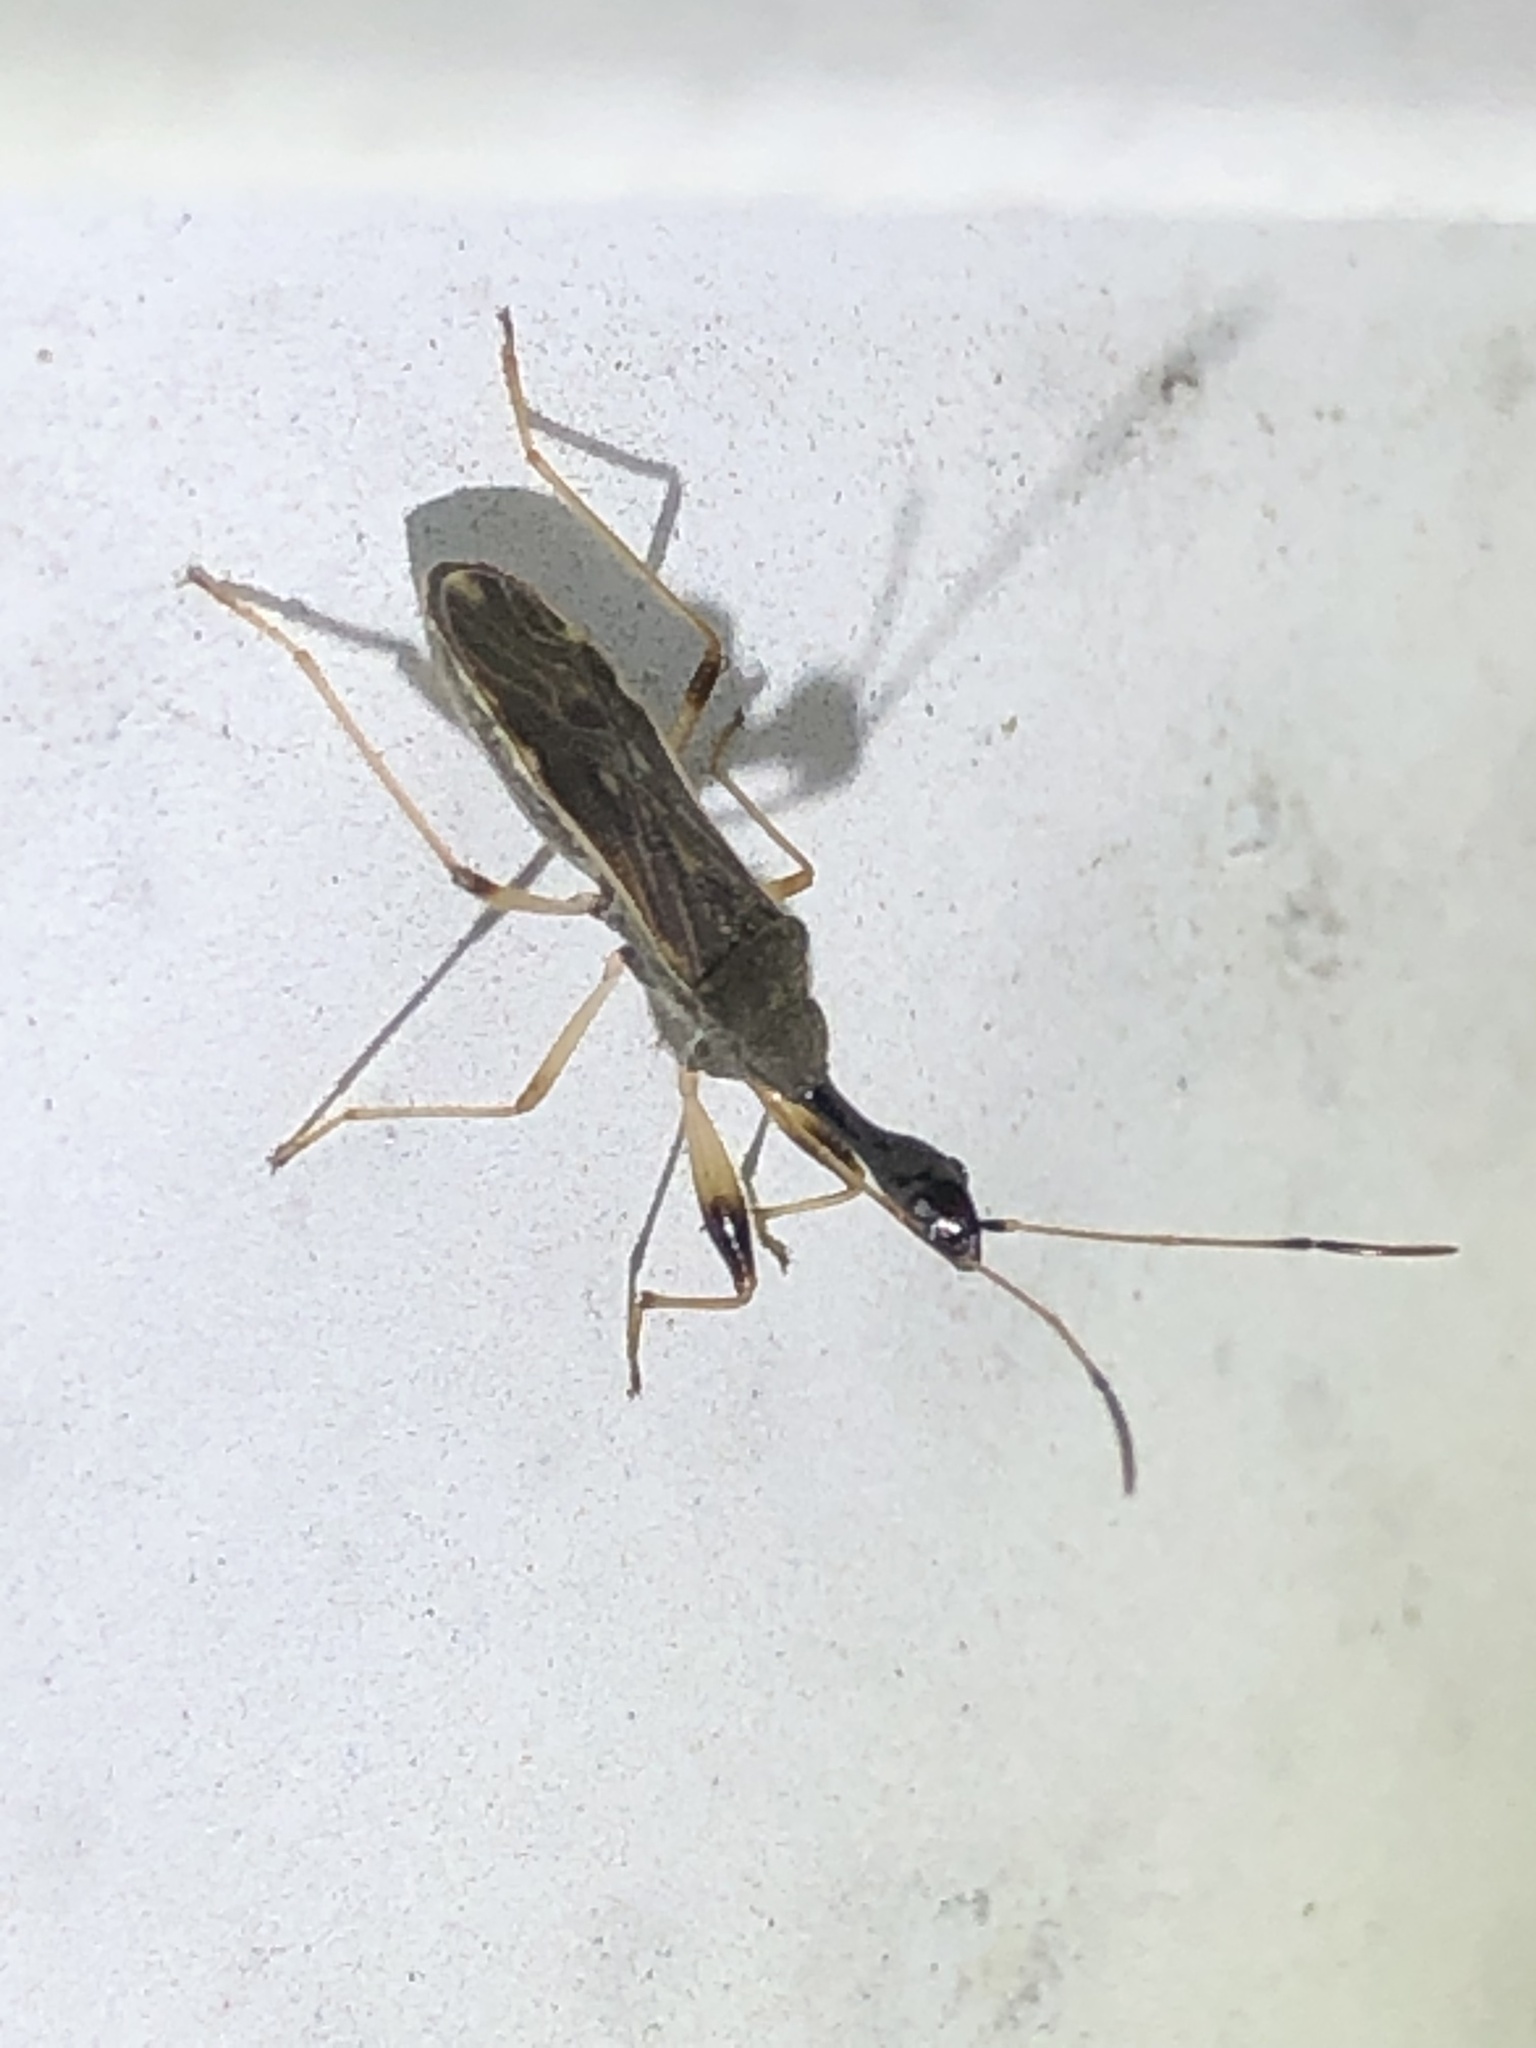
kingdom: Animalia
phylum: Arthropoda
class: Insecta
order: Hemiptera
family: Rhyparochromidae
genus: Myodocha
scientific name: Myodocha serripes
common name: Long-necked seed bug
